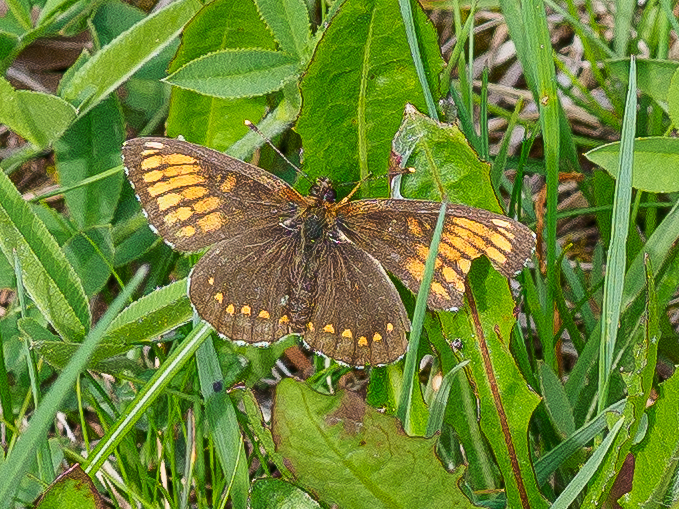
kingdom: Animalia
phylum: Arthropoda
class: Insecta
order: Lepidoptera
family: Nymphalidae
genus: Melitaea
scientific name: Melitaea diamina
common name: False heath fritillary
